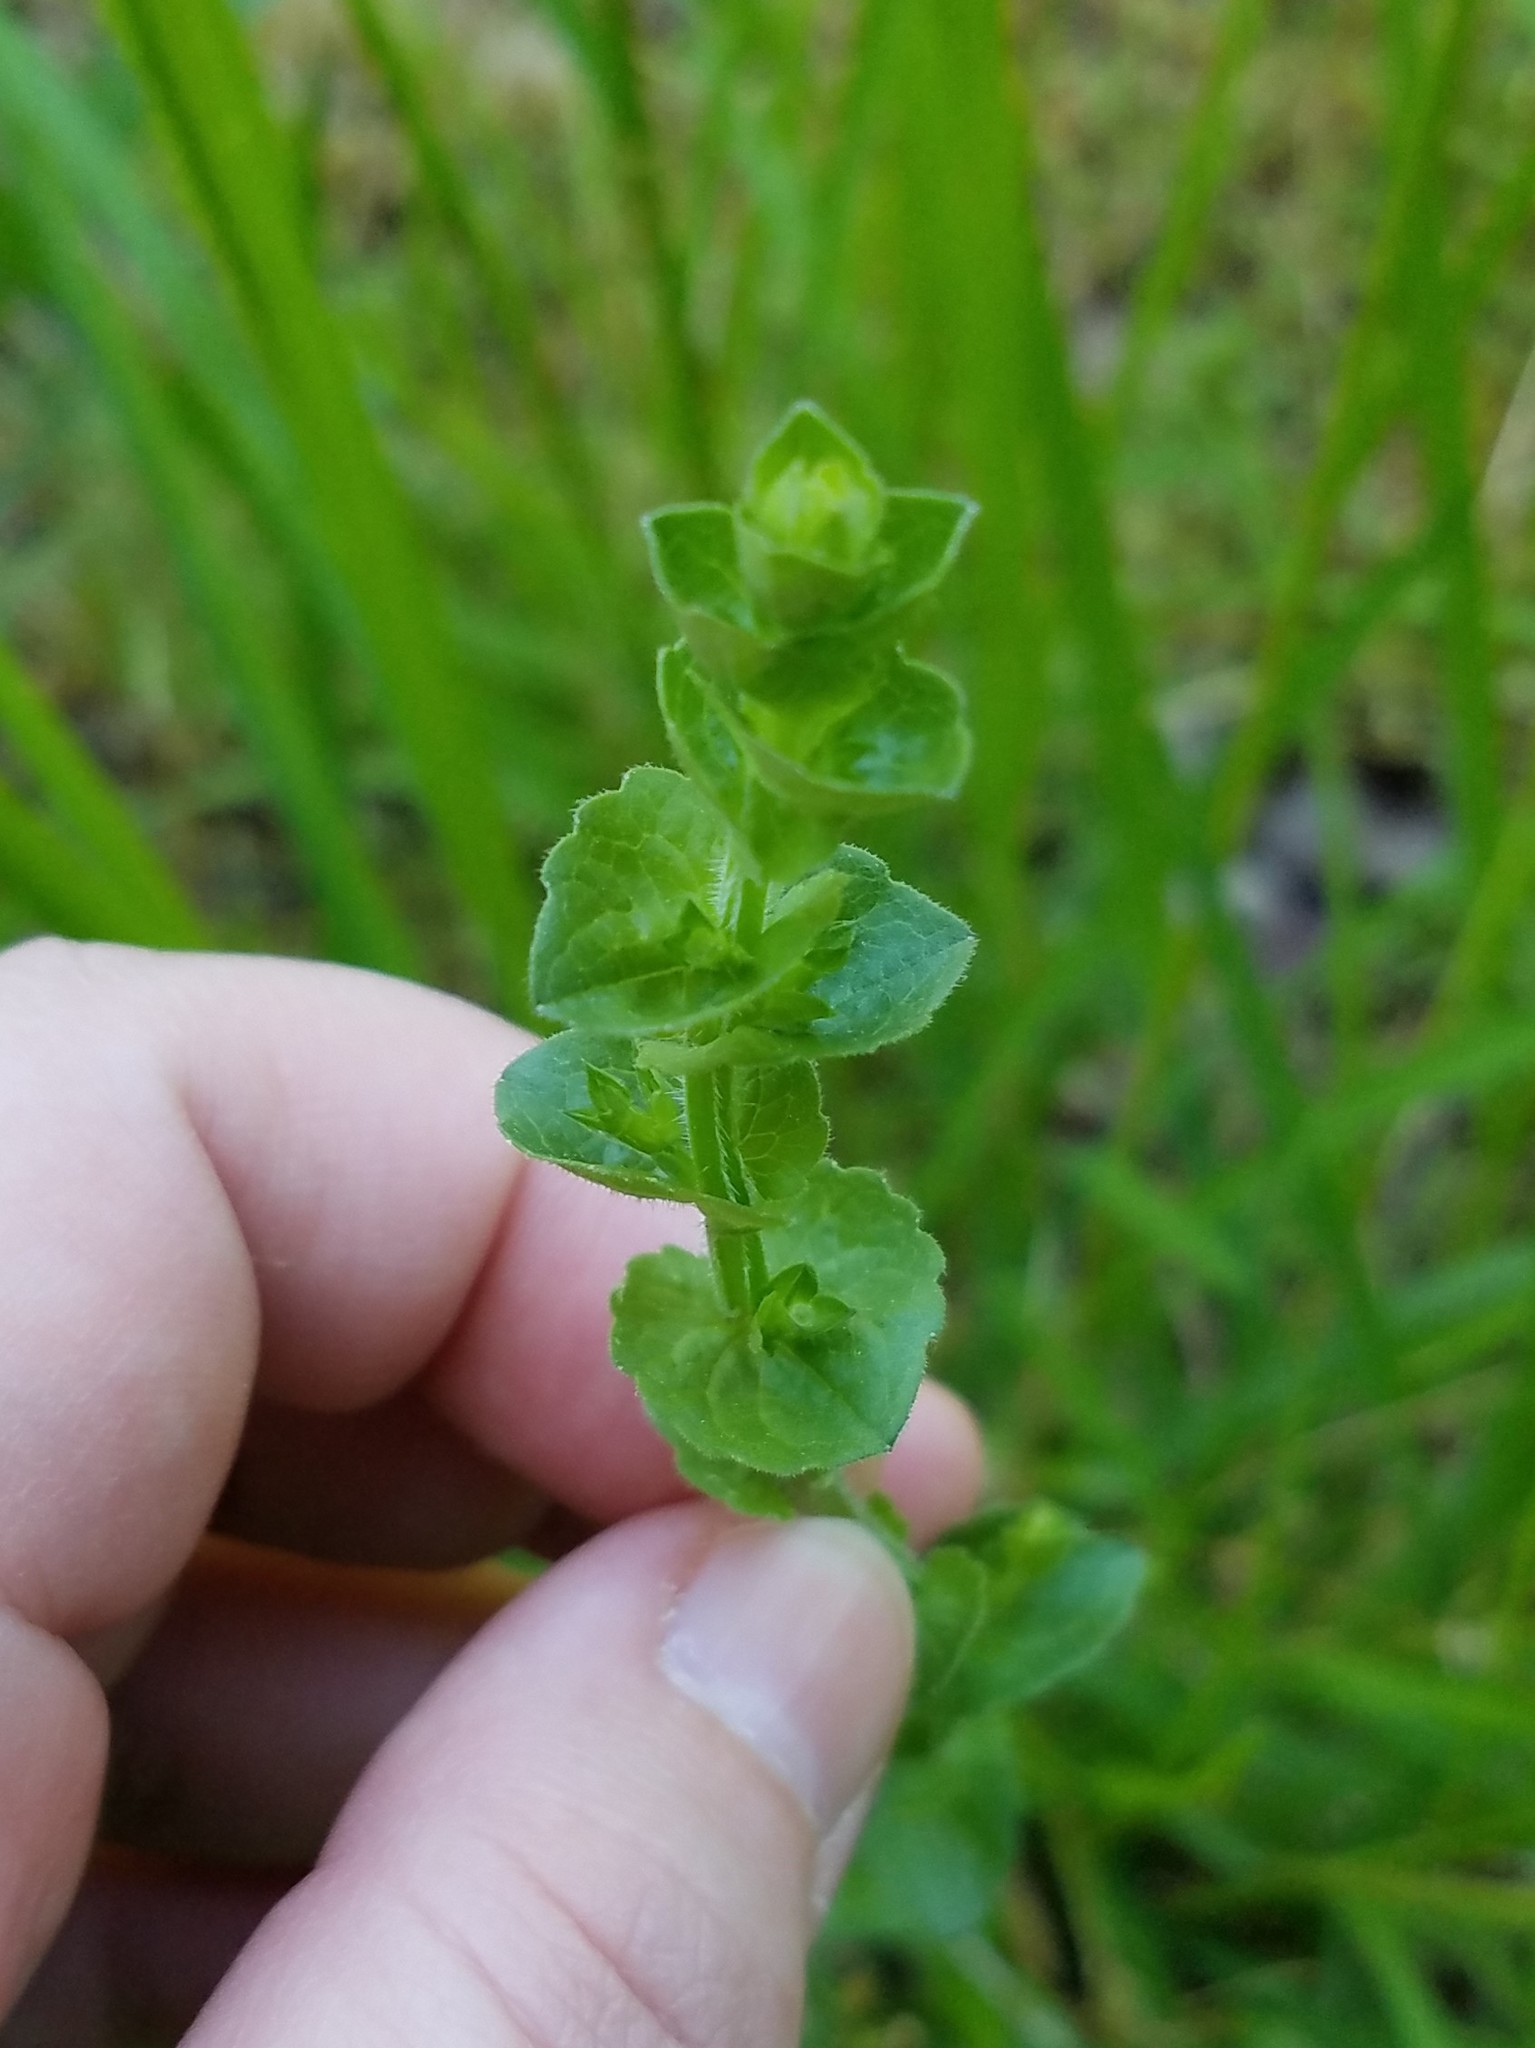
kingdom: Plantae
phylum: Tracheophyta
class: Magnoliopsida
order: Asterales
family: Campanulaceae
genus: Triodanis
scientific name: Triodanis perfoliata
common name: Clasping venus' looking-glass
